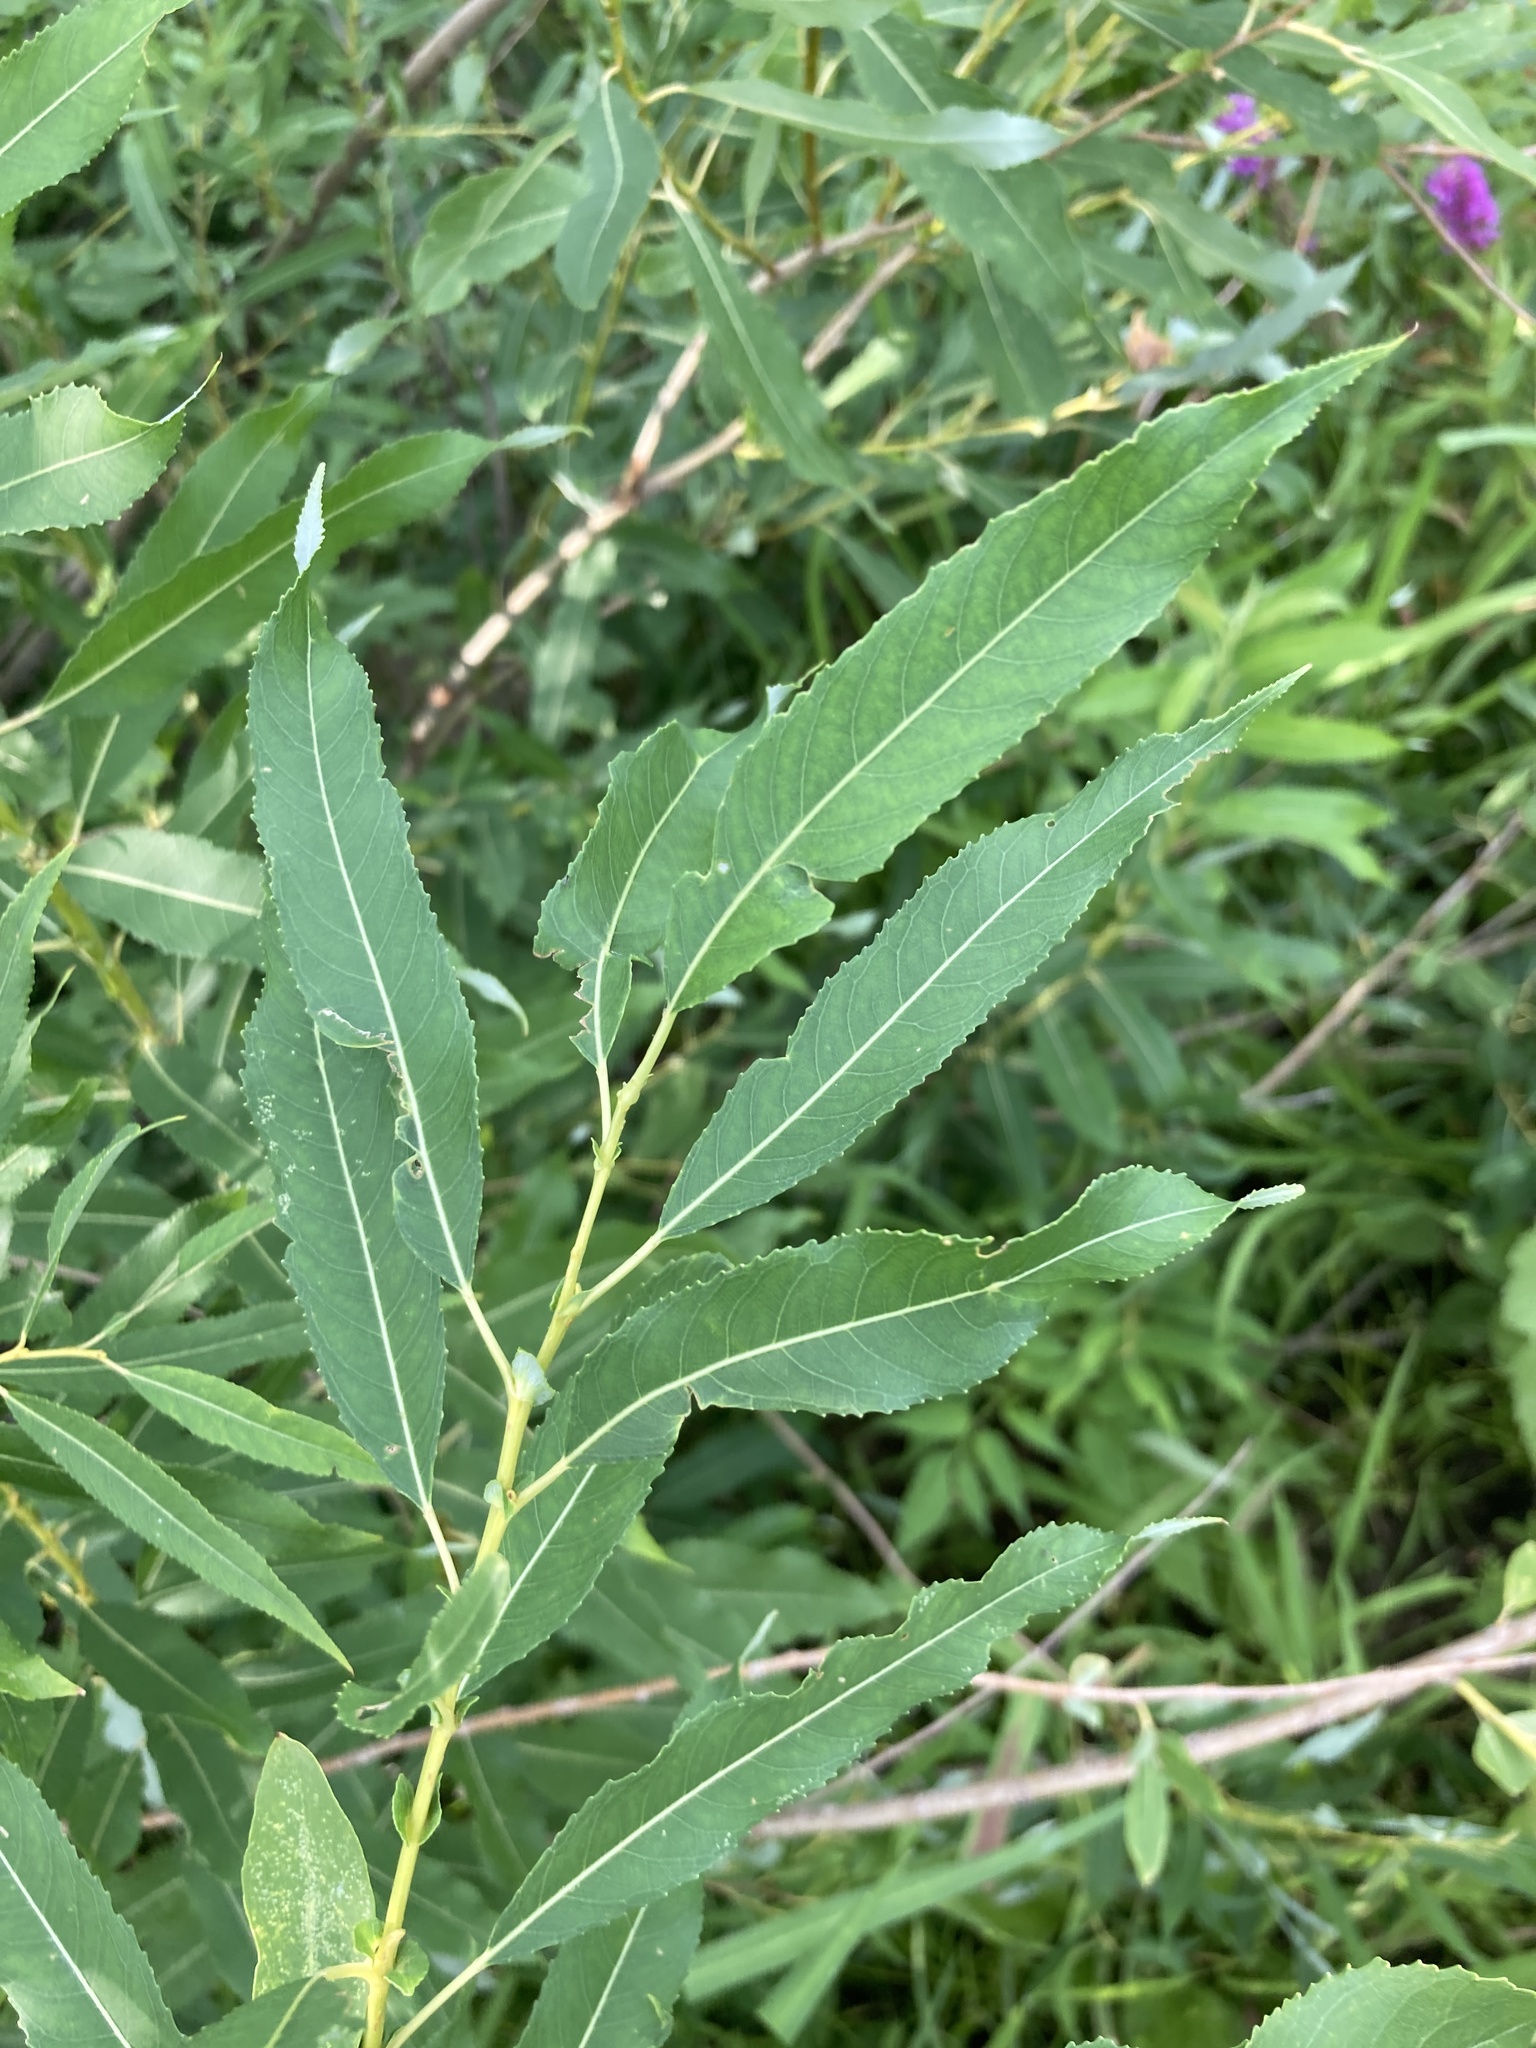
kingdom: Plantae
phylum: Tracheophyta
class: Magnoliopsida
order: Malpighiales
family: Salicaceae
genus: Salix
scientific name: Salix triandra
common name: Almond willow
